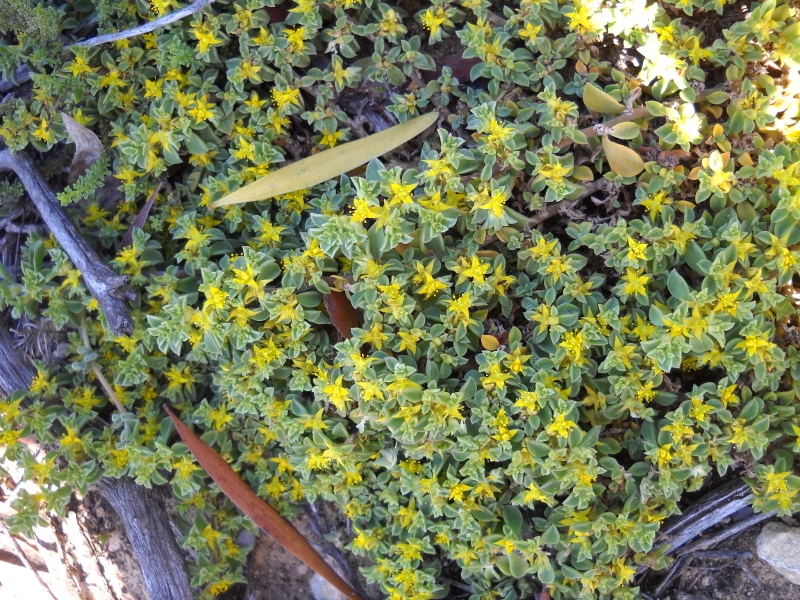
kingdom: Plantae
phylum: Tracheophyta
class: Magnoliopsida
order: Caryophyllales
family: Aizoaceae
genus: Aizoon
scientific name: Aizoon rigidum
